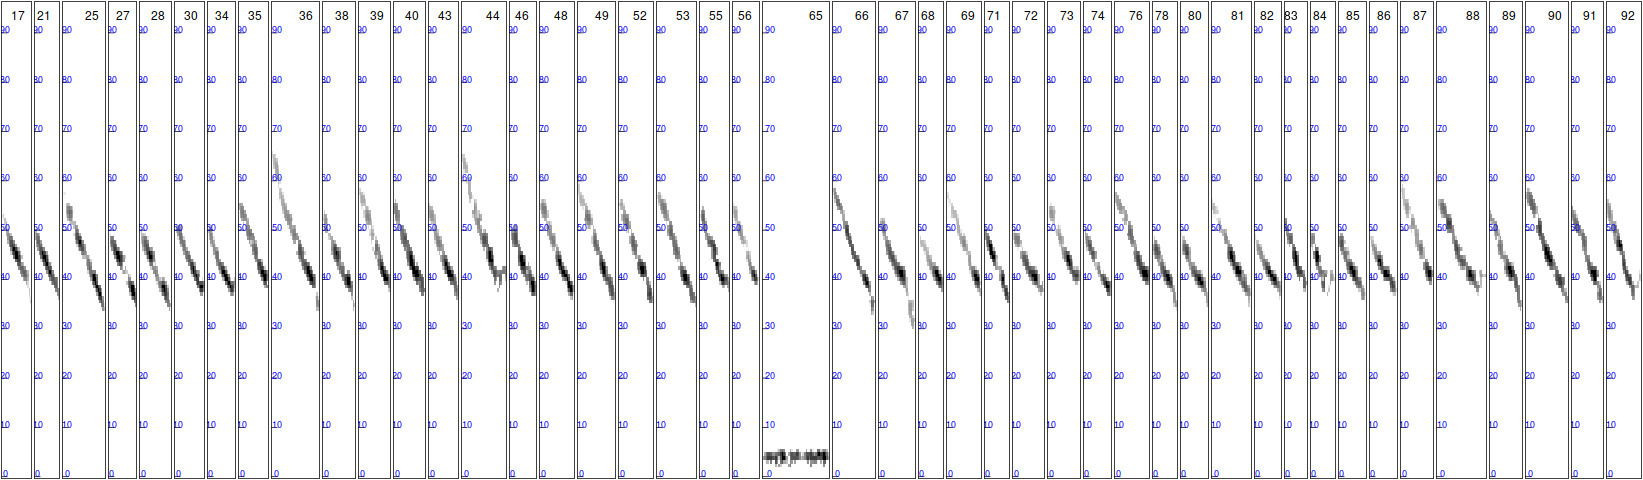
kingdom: Animalia
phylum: Chordata
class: Mammalia
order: Chiroptera
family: Vespertilionidae
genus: Myotis
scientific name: Myotis daubentonii
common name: Daubenton's myotis
